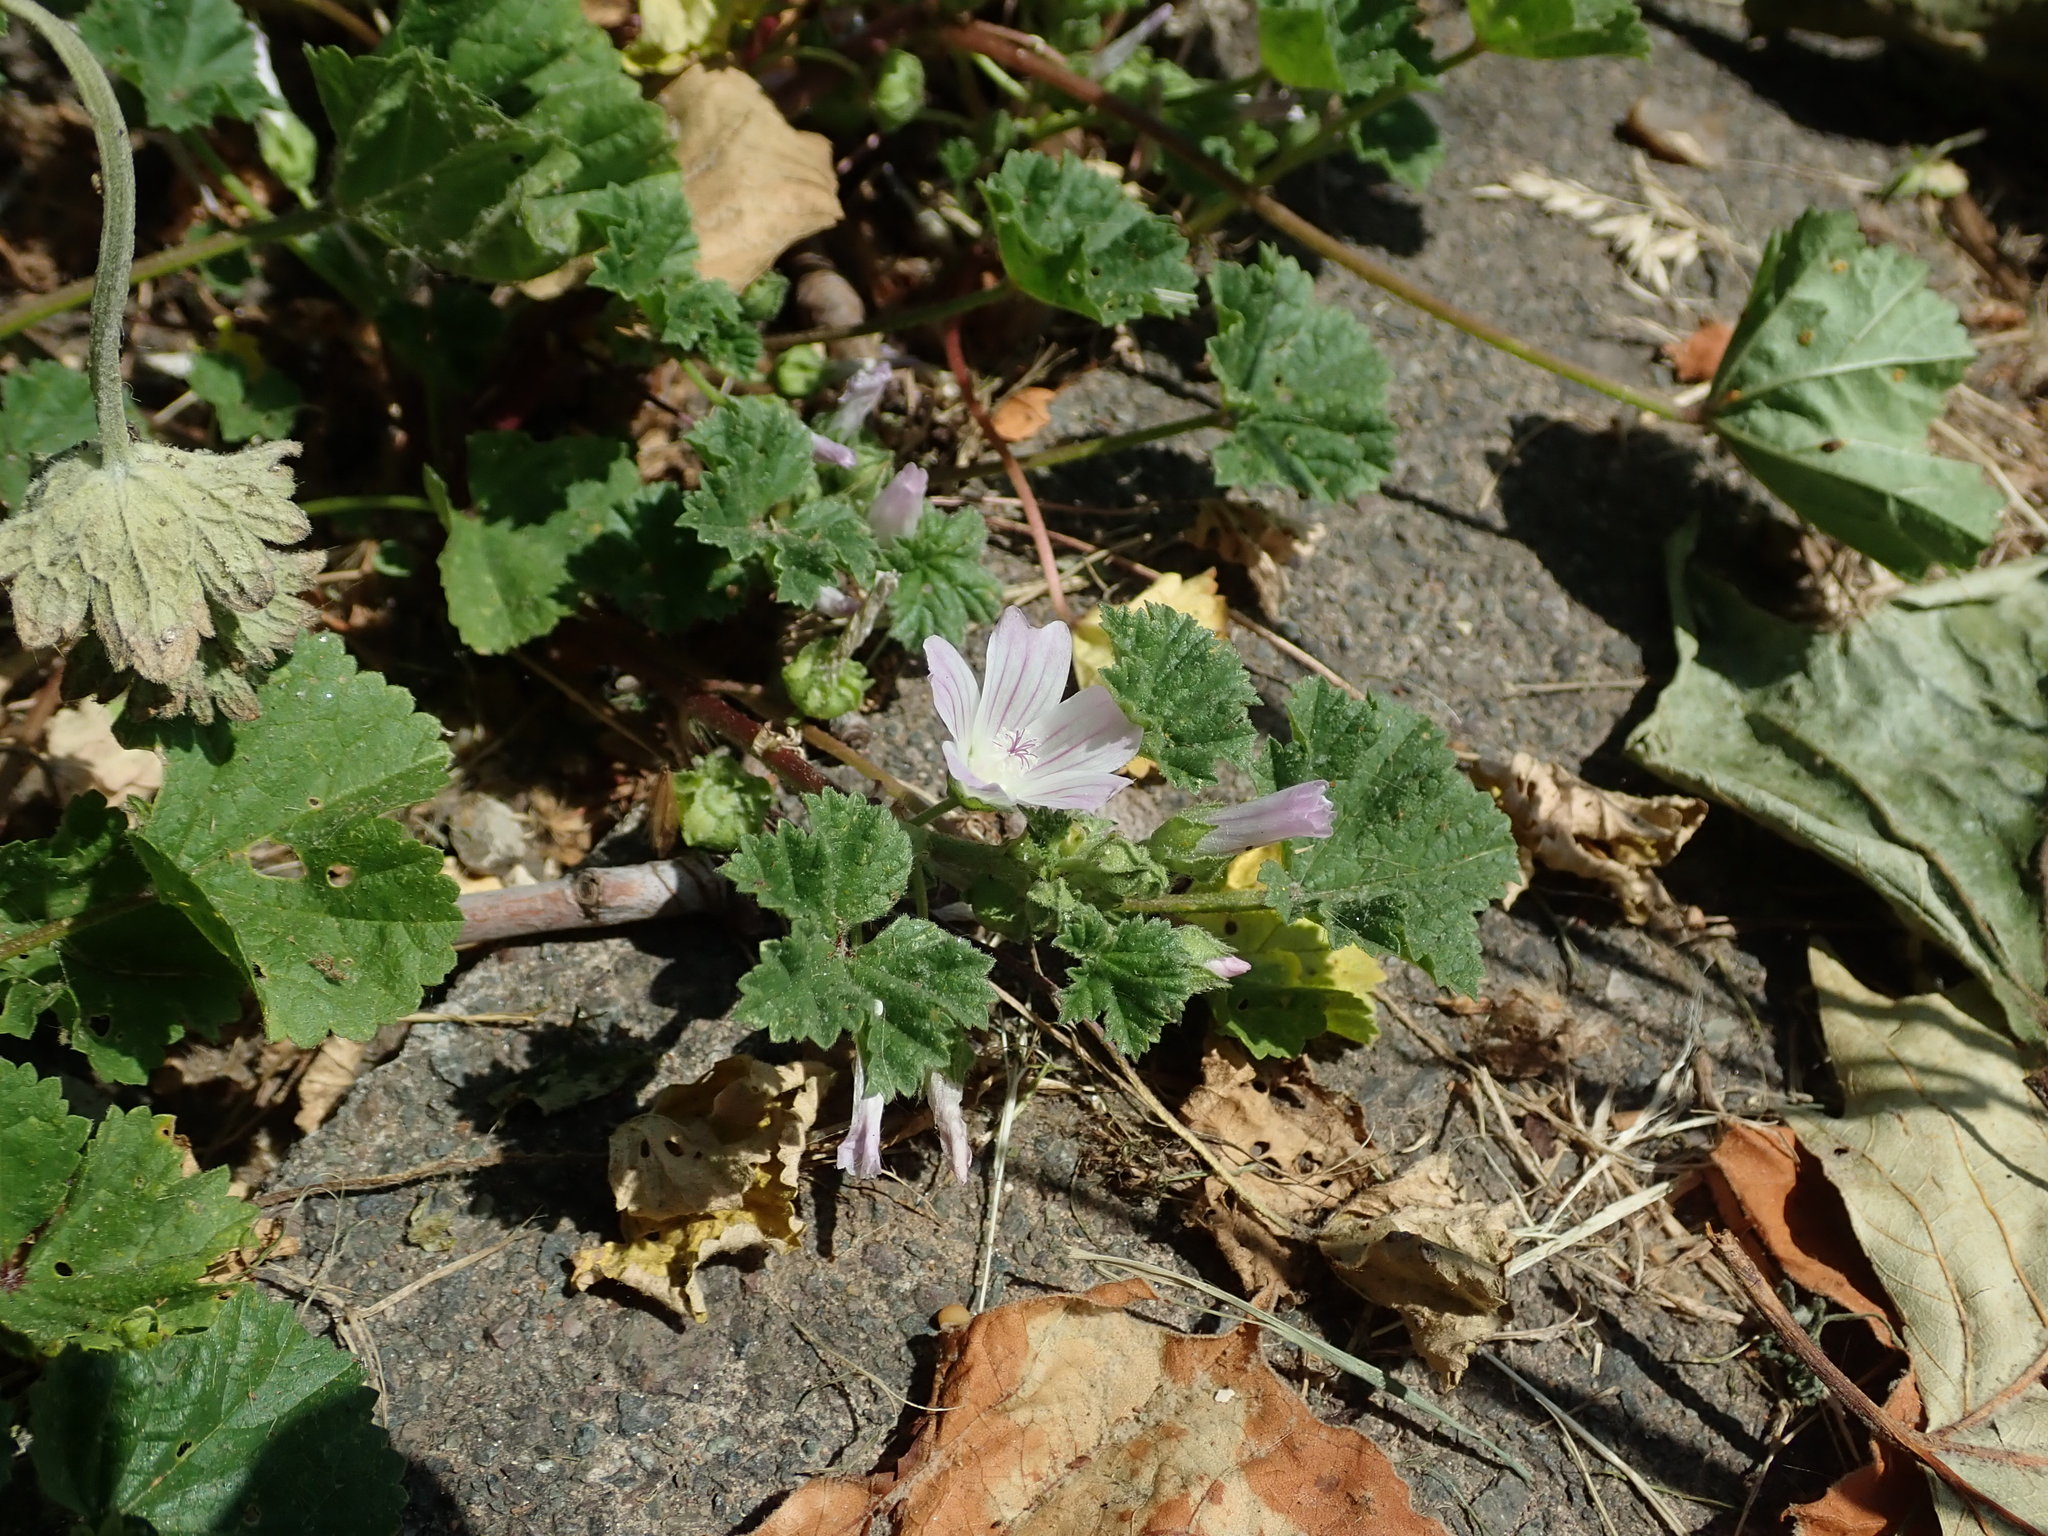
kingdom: Plantae
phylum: Tracheophyta
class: Magnoliopsida
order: Malvales
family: Malvaceae
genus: Malva
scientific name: Malva neglecta
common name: Common mallow
